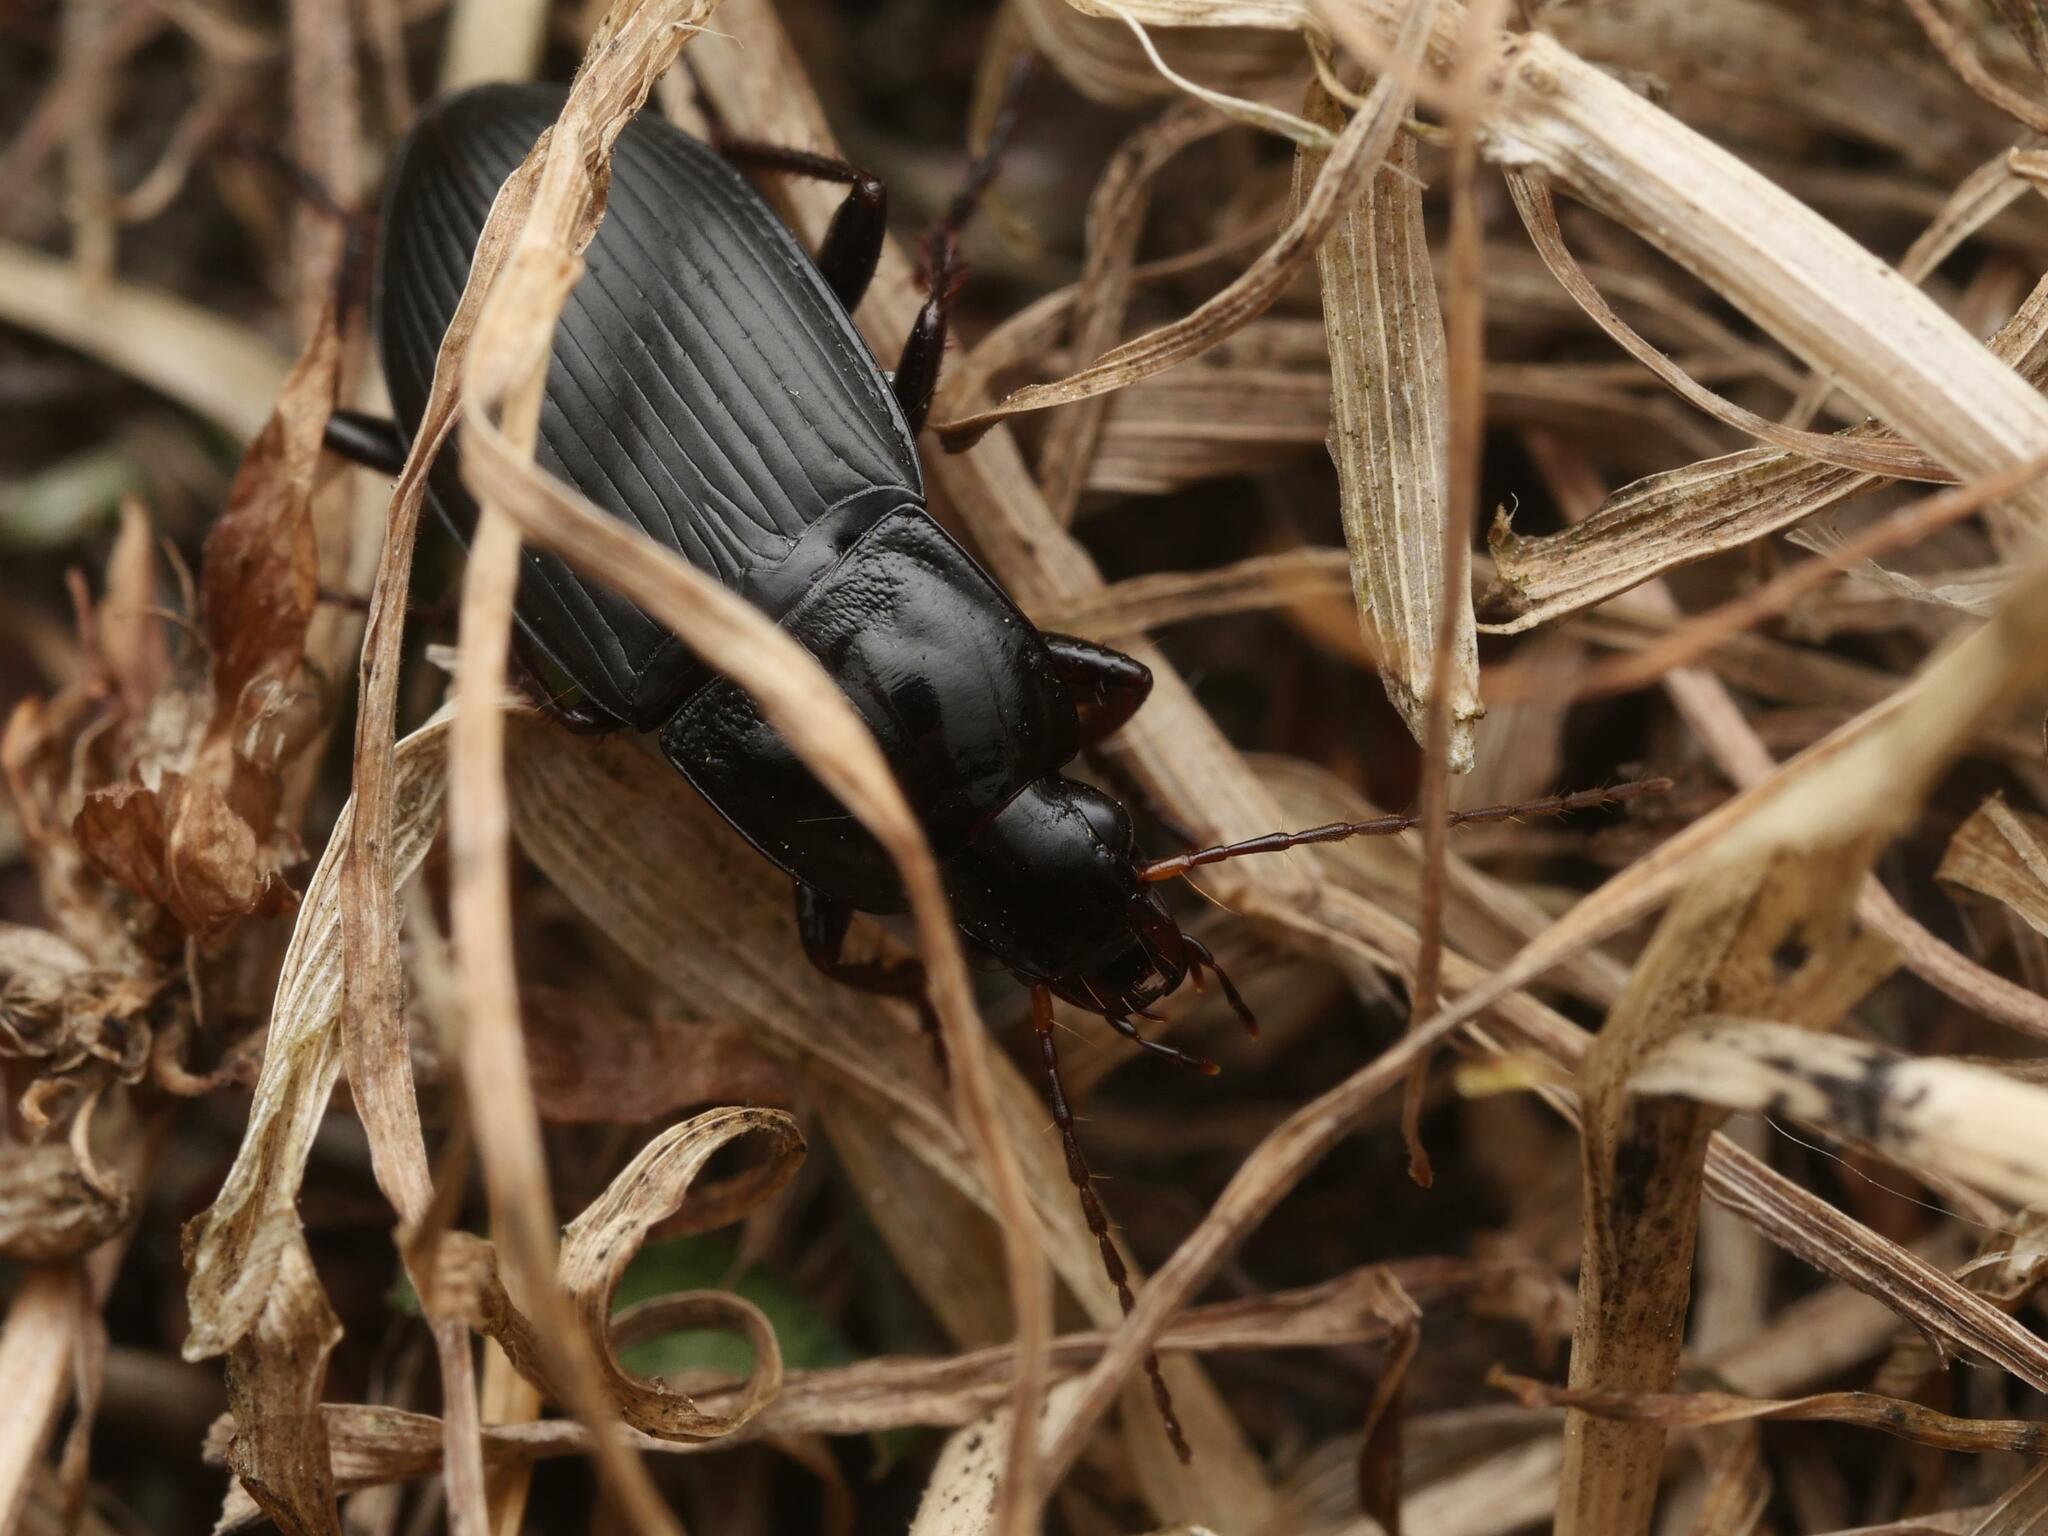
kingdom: Animalia
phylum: Arthropoda
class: Insecta
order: Coleoptera
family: Carabidae
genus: Calathus
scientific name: Calathus fuscipes
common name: Dark-footed harp ground beetle
